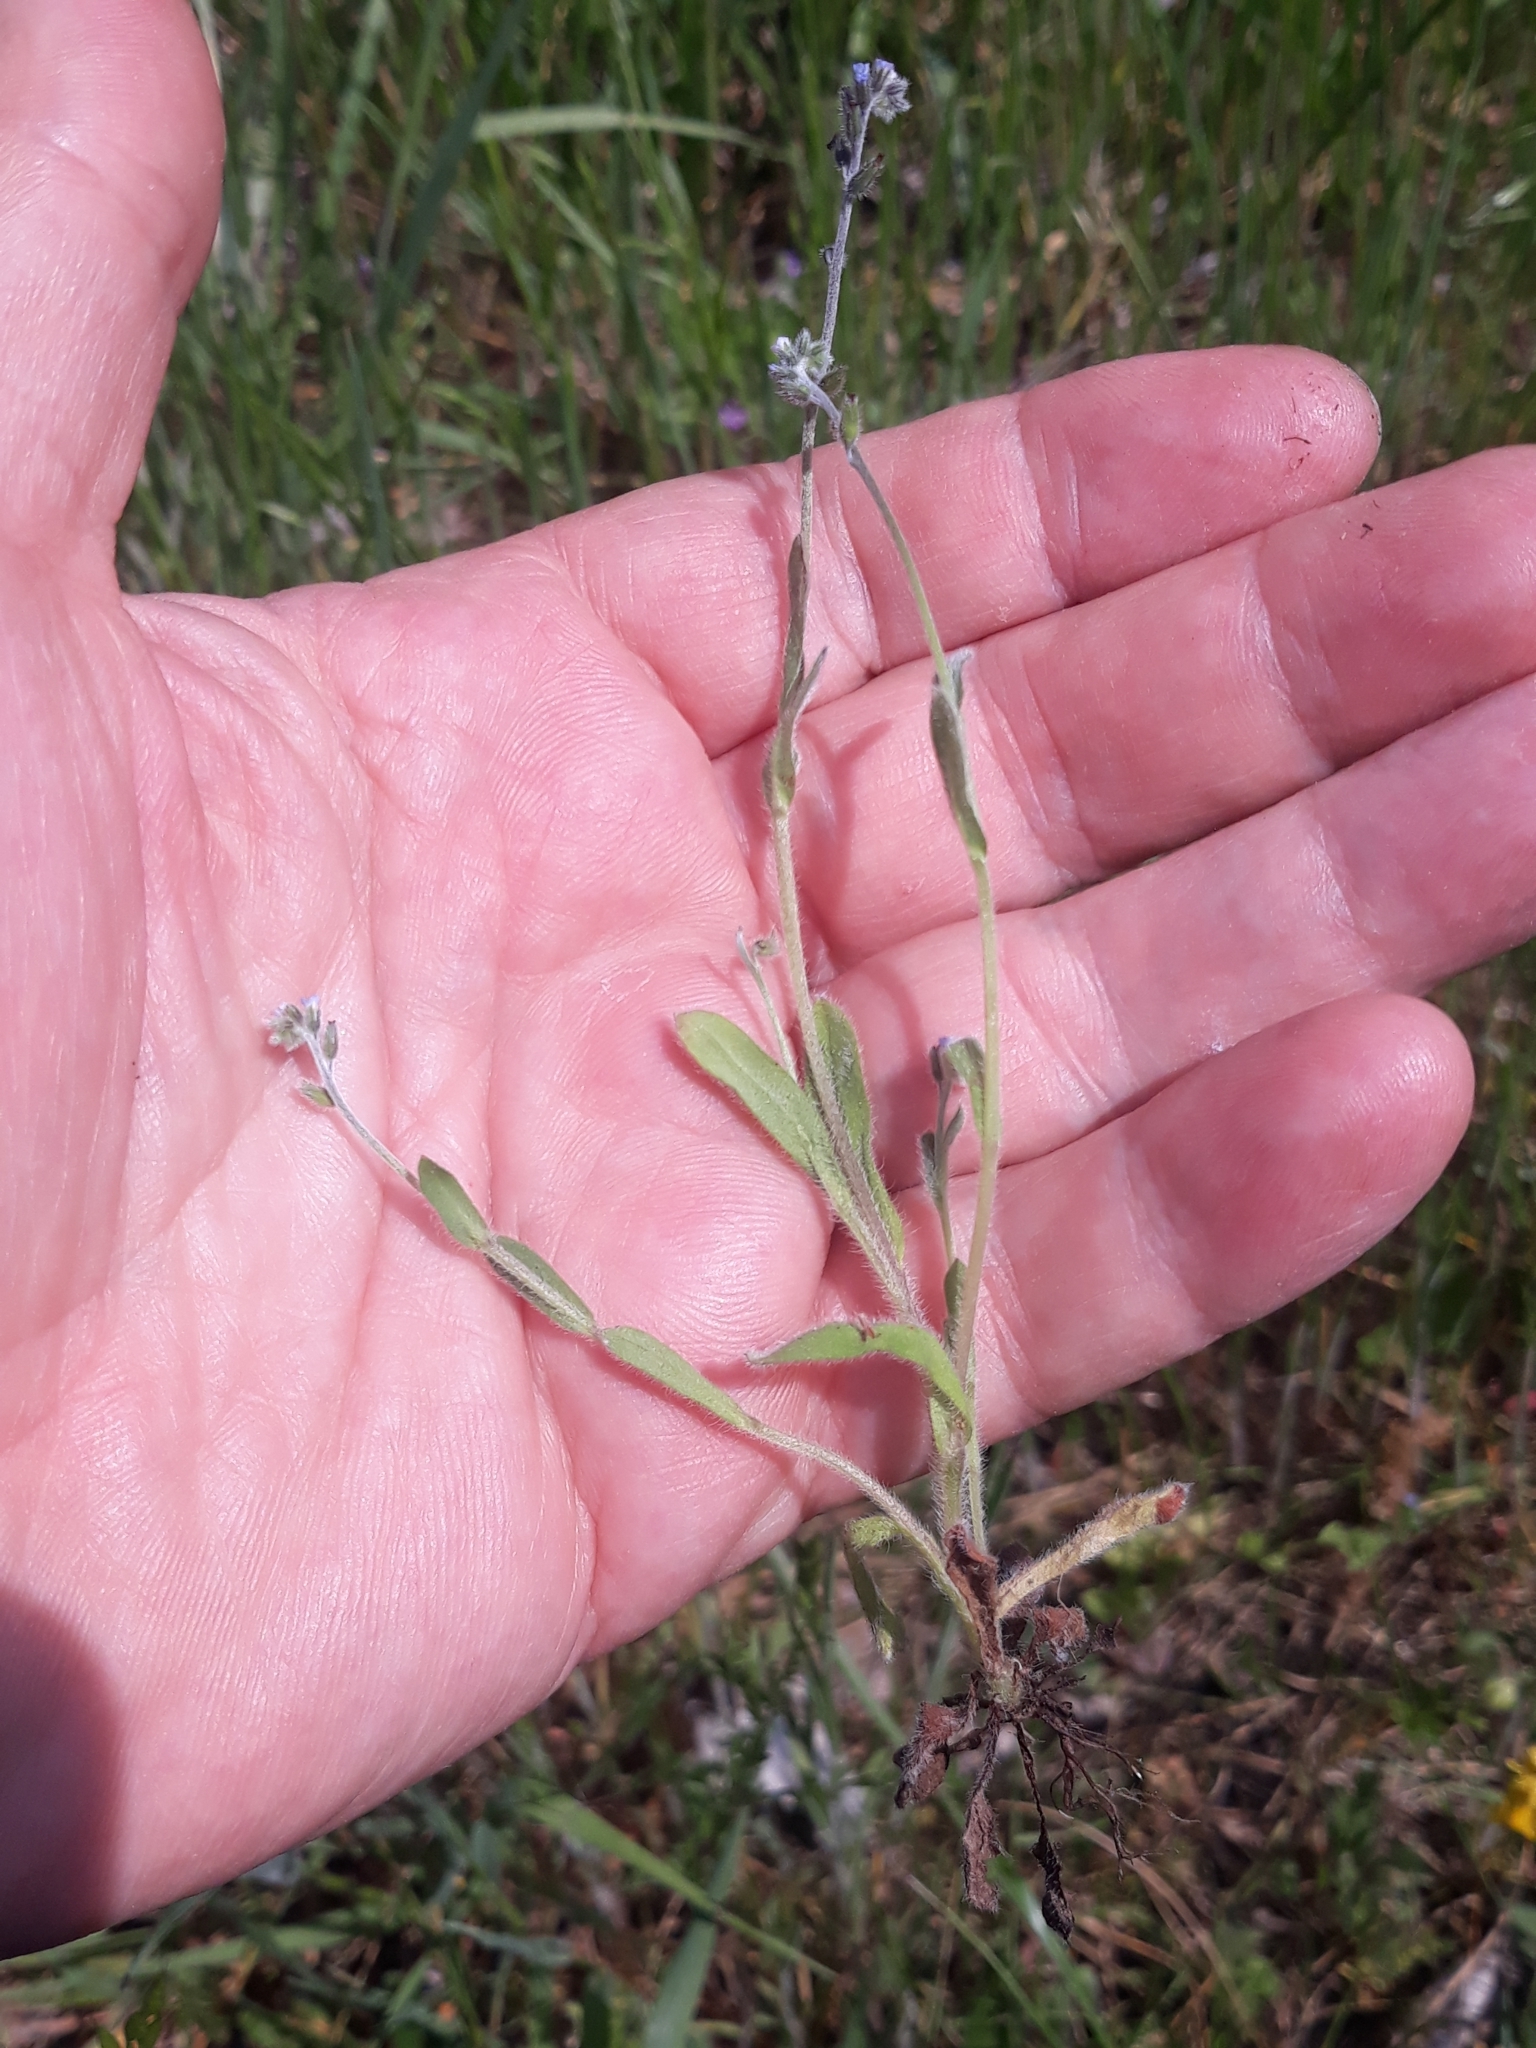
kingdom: Plantae
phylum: Tracheophyta
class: Magnoliopsida
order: Boraginales
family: Boraginaceae
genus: Myosotis
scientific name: Myosotis ramosissima
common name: Early forget-me-not
